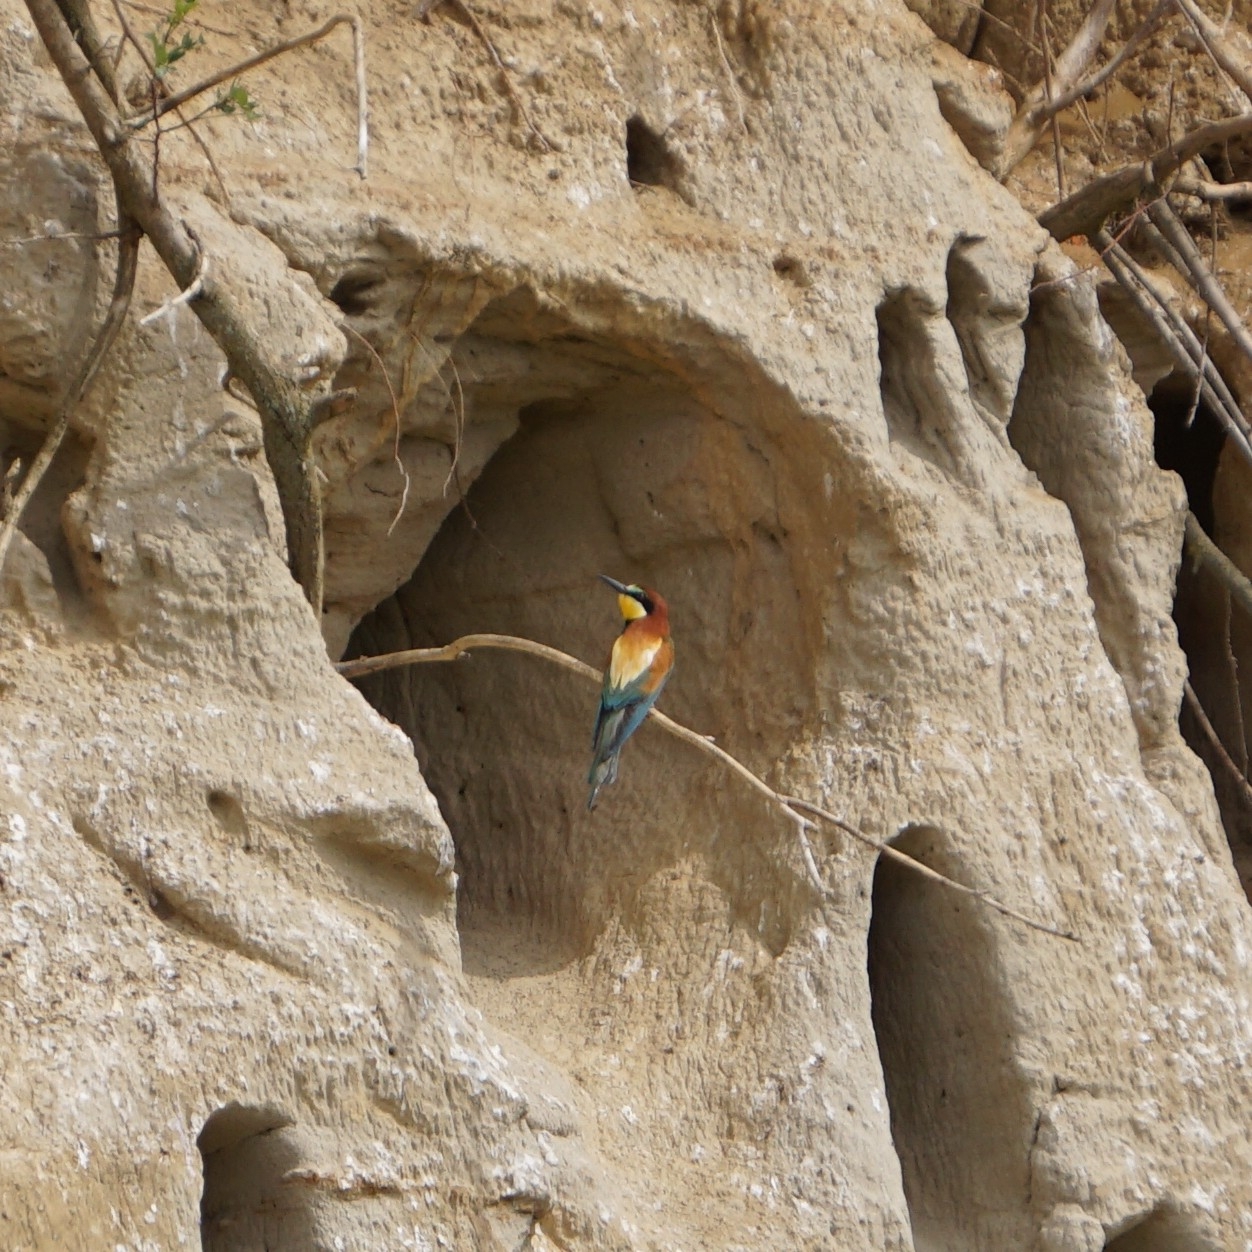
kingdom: Animalia
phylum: Chordata
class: Aves
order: Coraciiformes
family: Meropidae
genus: Merops
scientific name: Merops apiaster
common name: European bee-eater
